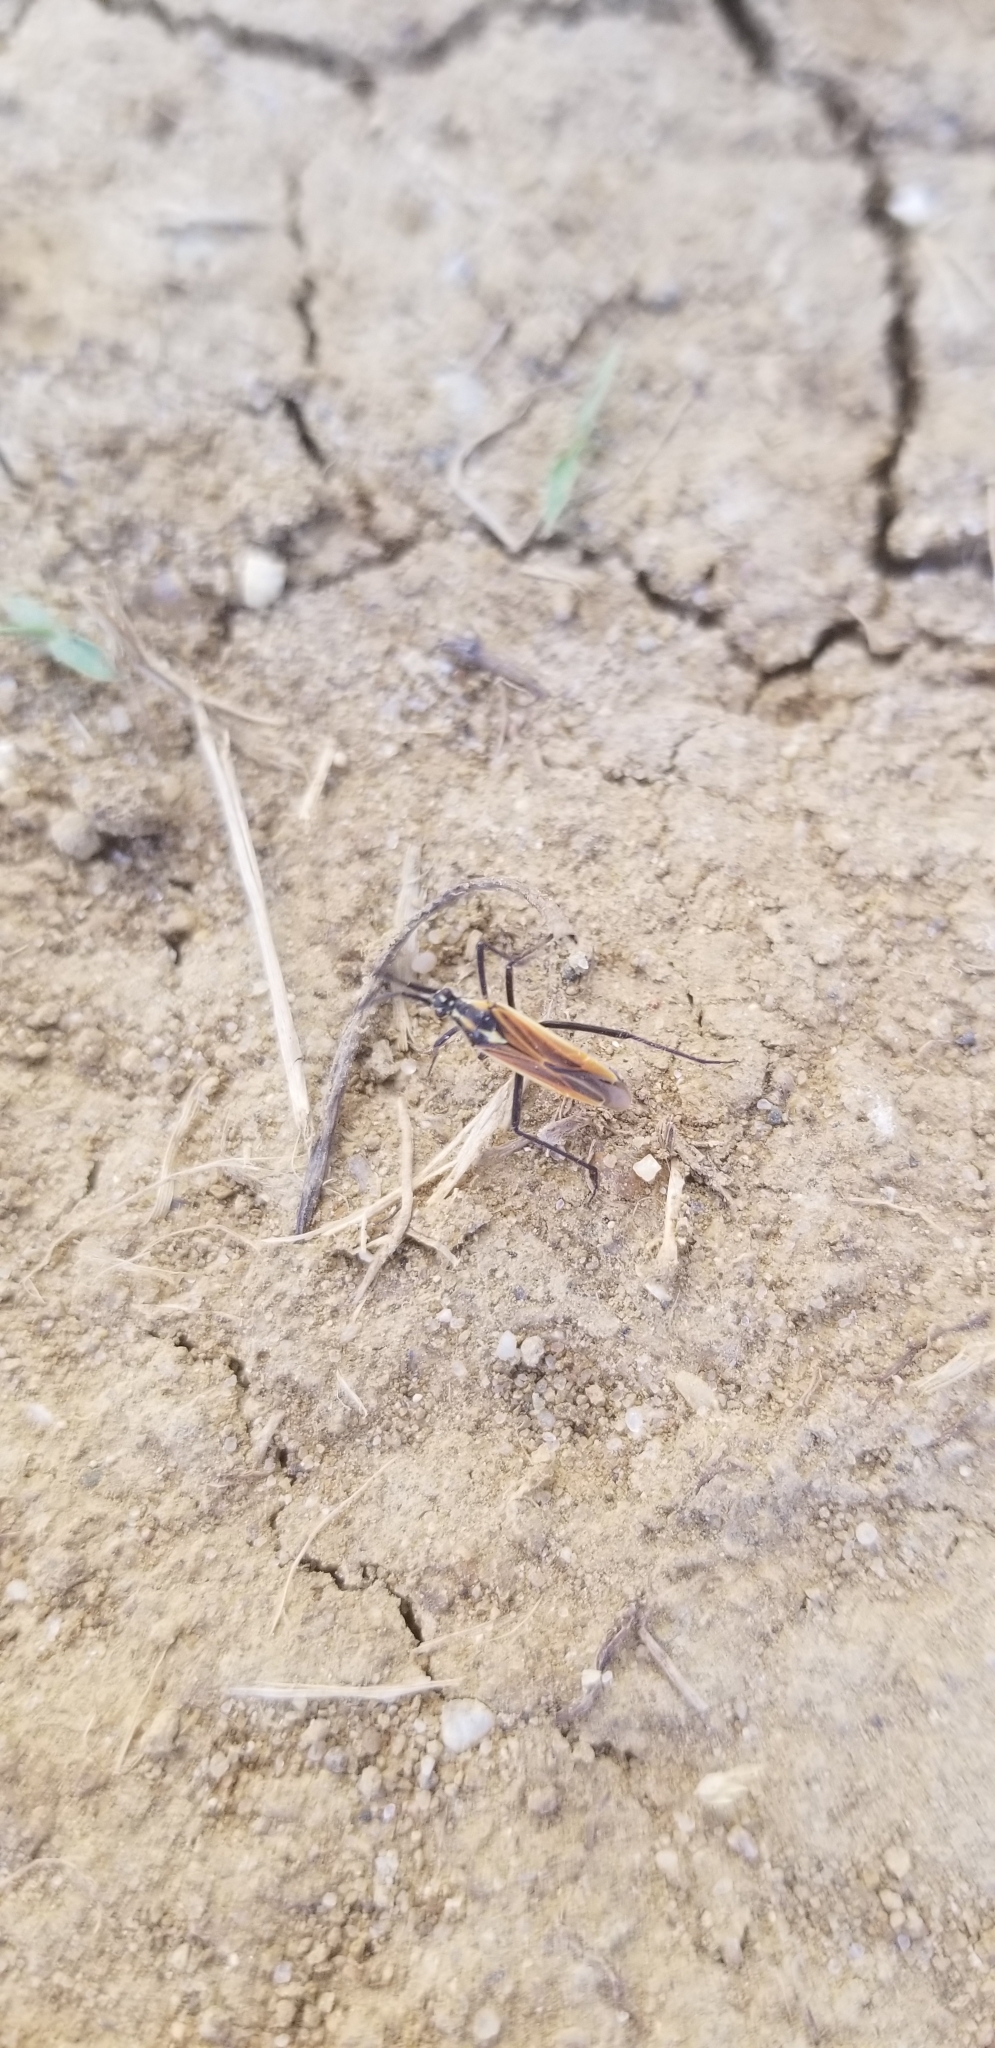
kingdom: Animalia
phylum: Arthropoda
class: Insecta
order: Hemiptera
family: Miridae
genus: Leptopterna
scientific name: Leptopterna dolabrata
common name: Meadow plant bug
